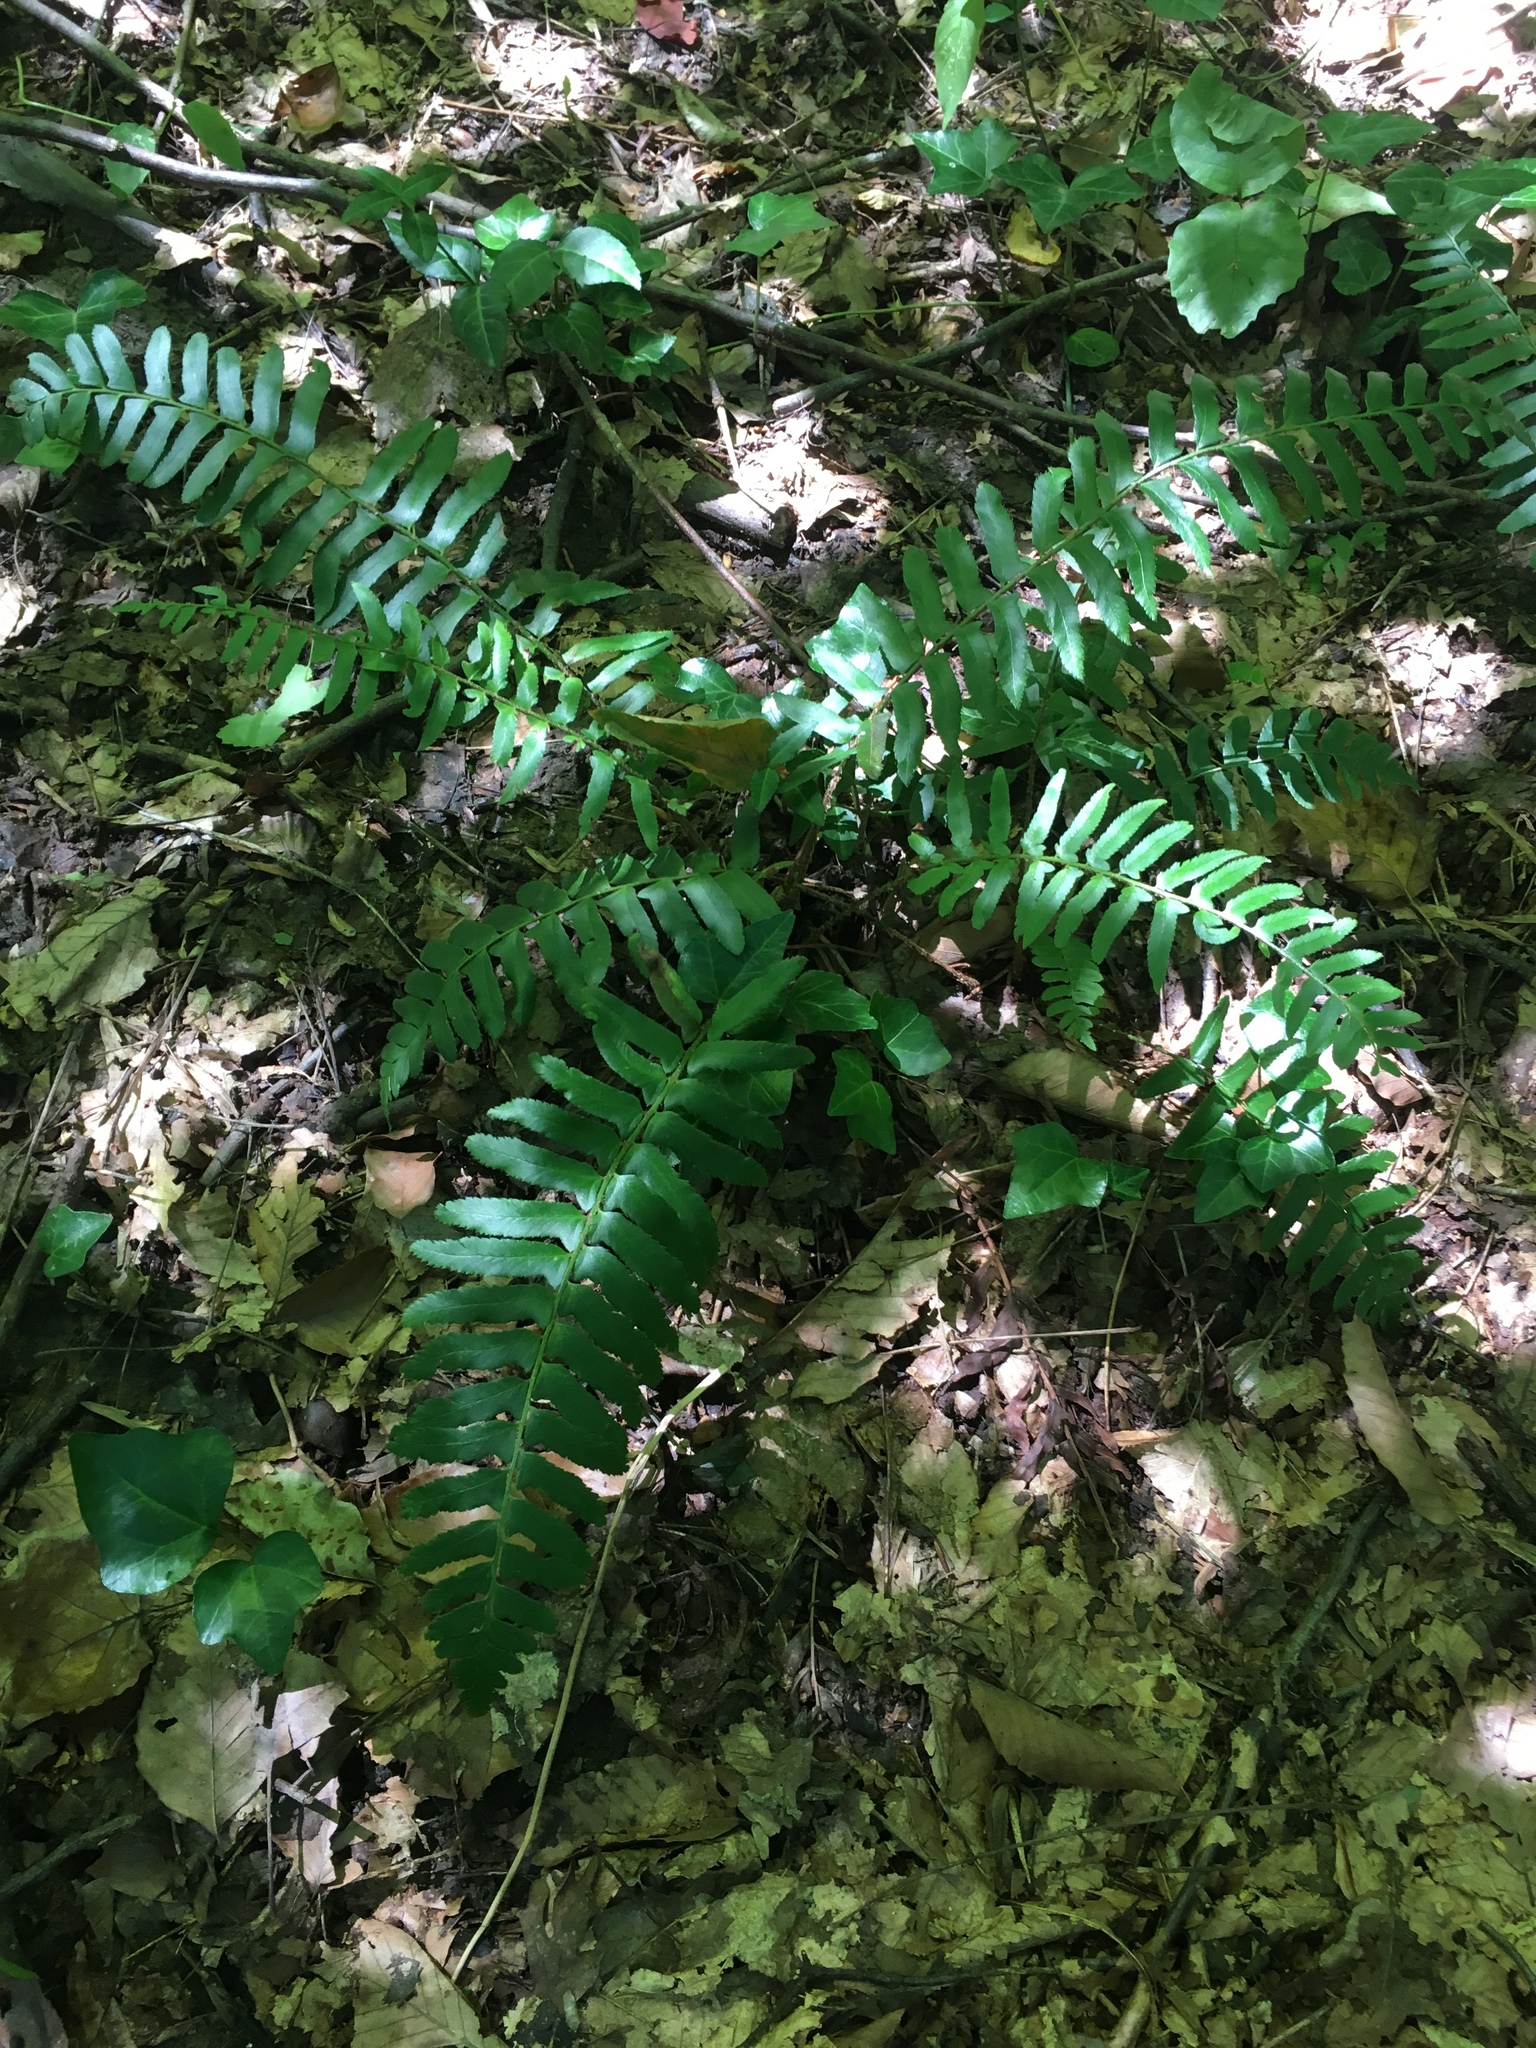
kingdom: Plantae
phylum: Tracheophyta
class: Polypodiopsida
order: Polypodiales
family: Dryopteridaceae
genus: Polystichum
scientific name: Polystichum acrostichoides
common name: Christmas fern
